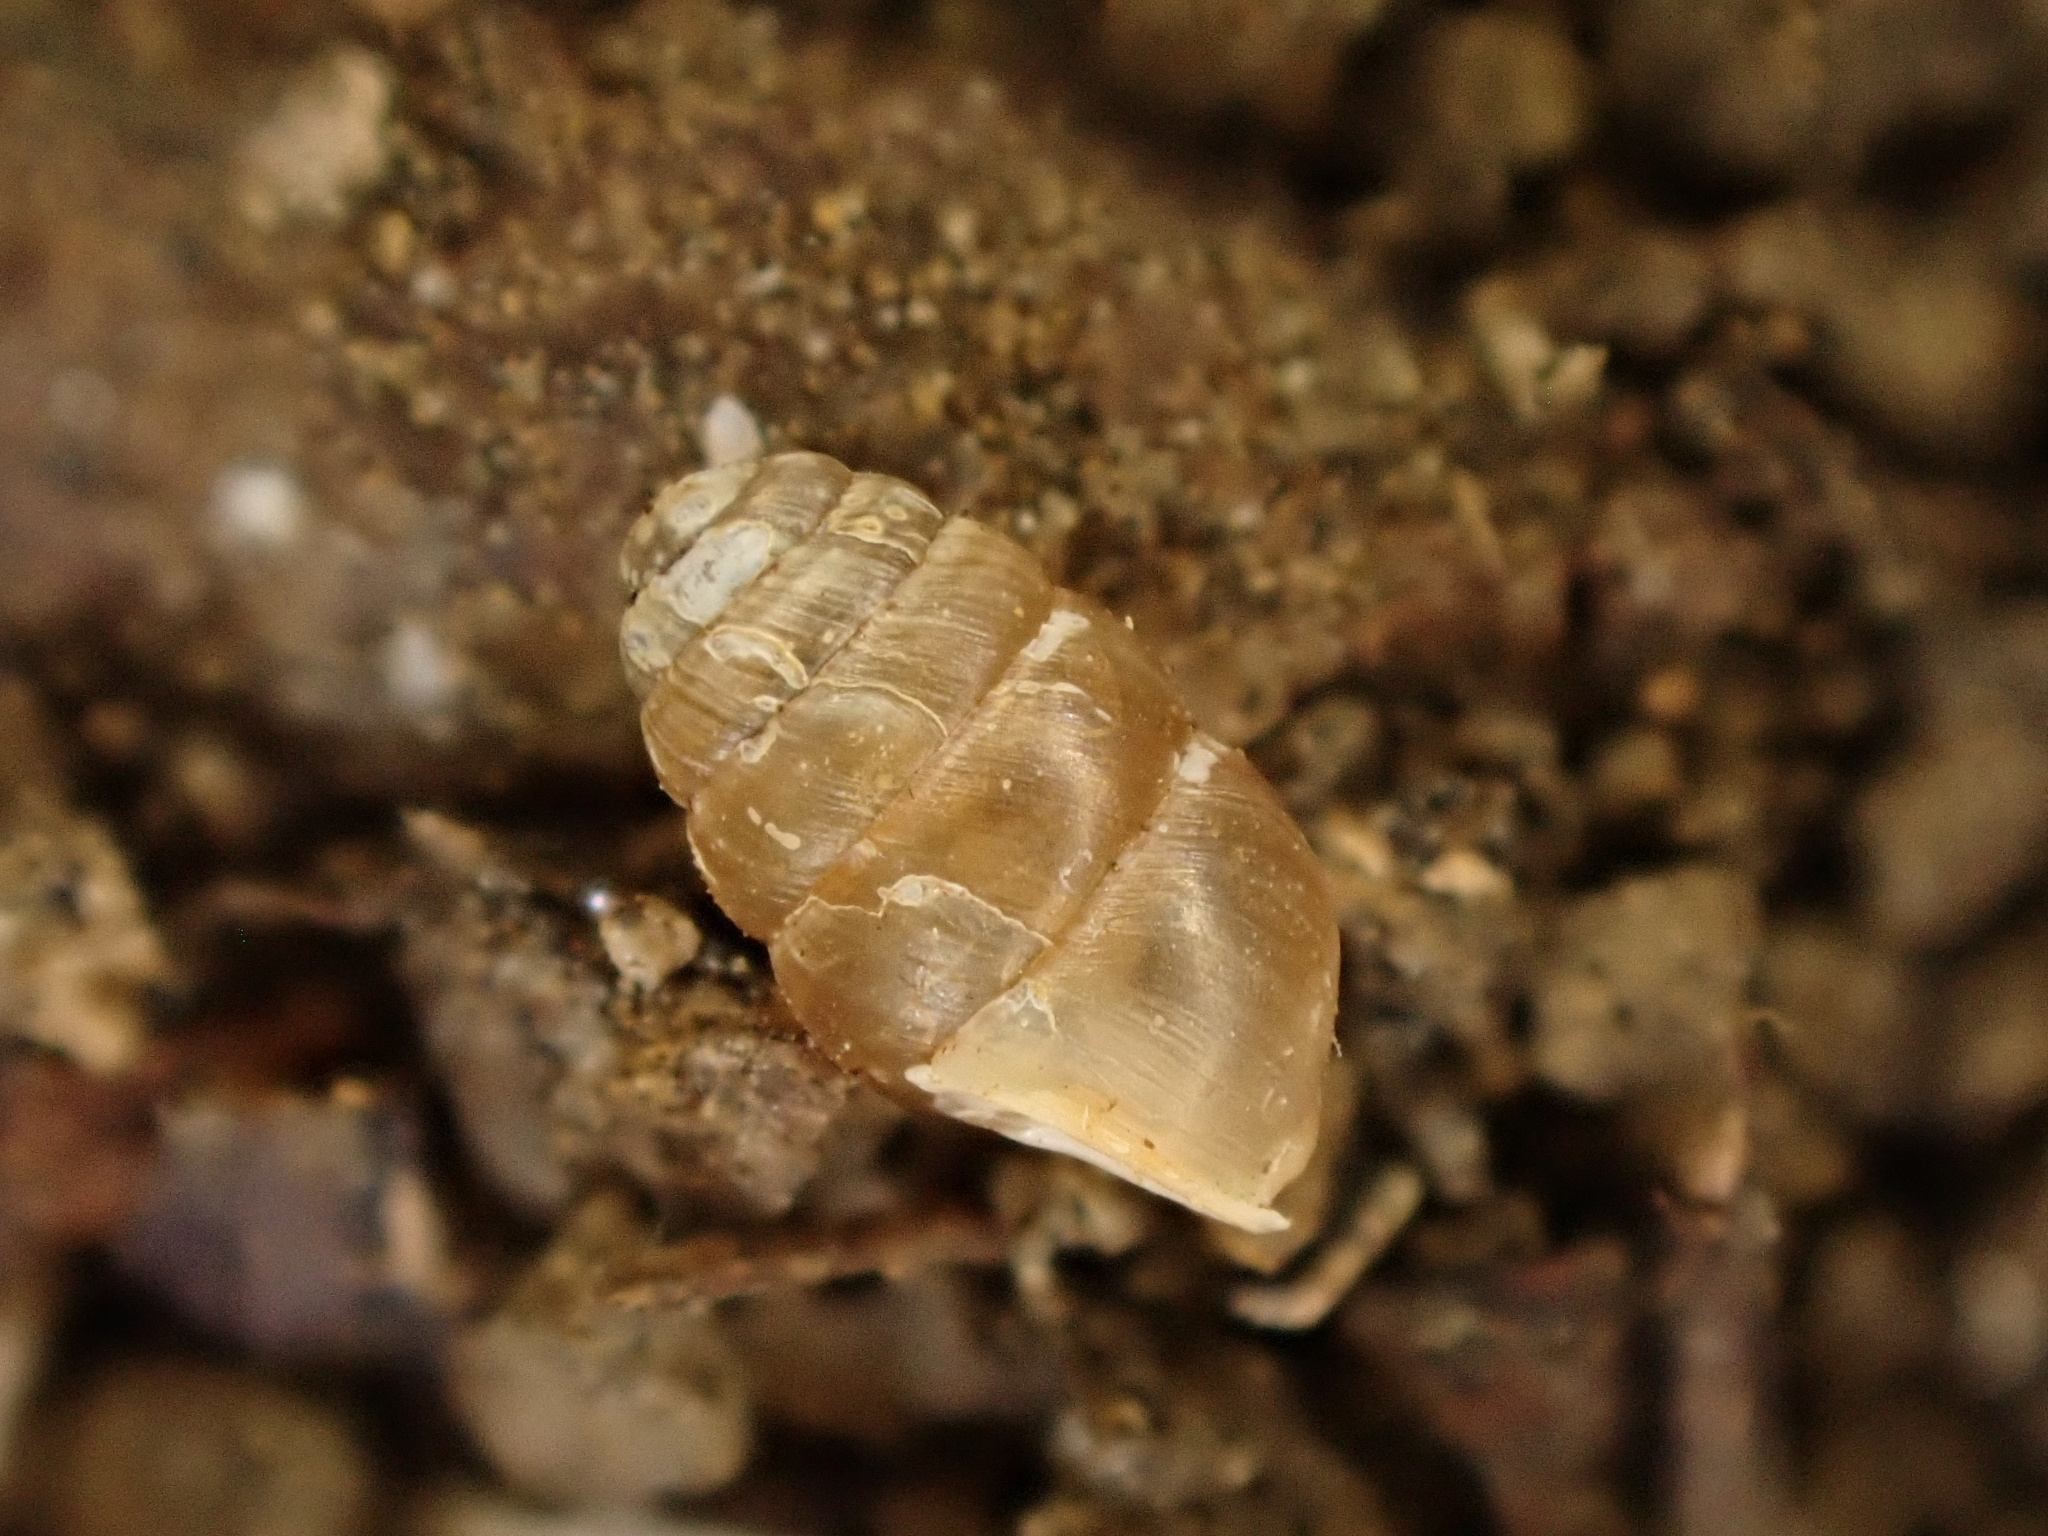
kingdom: Animalia
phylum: Mollusca
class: Gastropoda
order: Stylommatophora
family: Lauriidae
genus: Lauria
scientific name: Lauria cylindracea
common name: Common chrysalis snail
